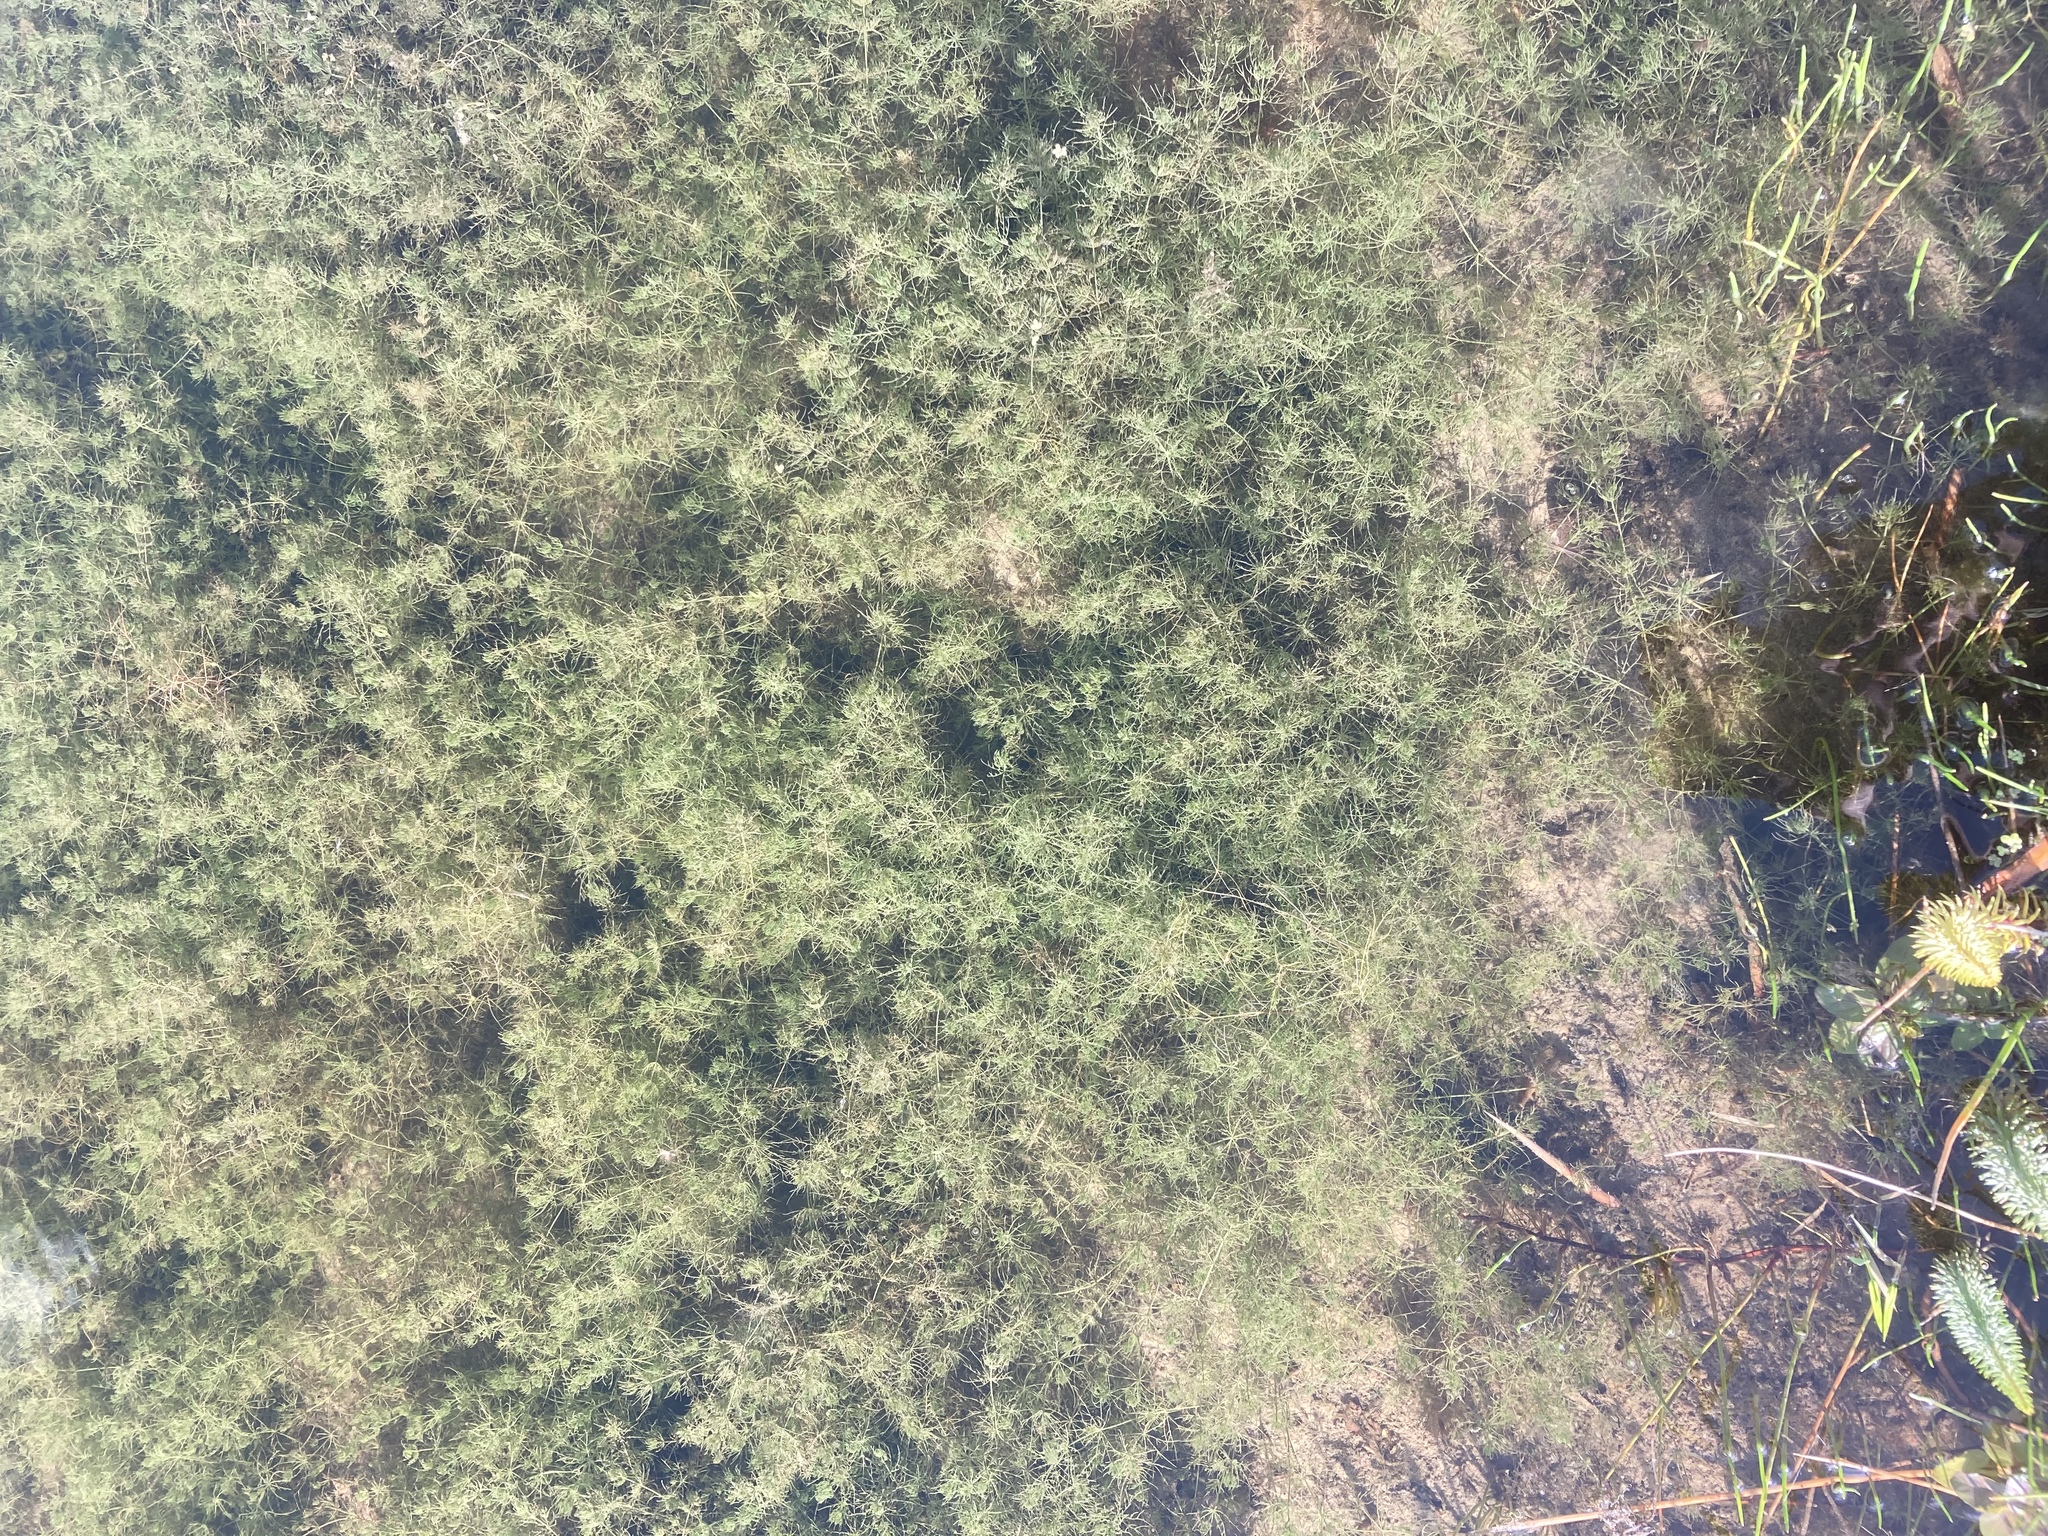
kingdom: Plantae
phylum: Charophyta
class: Charophyceae
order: Charales
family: Characeae
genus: Chara
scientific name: Chara vulgaris
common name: Common stonewort
